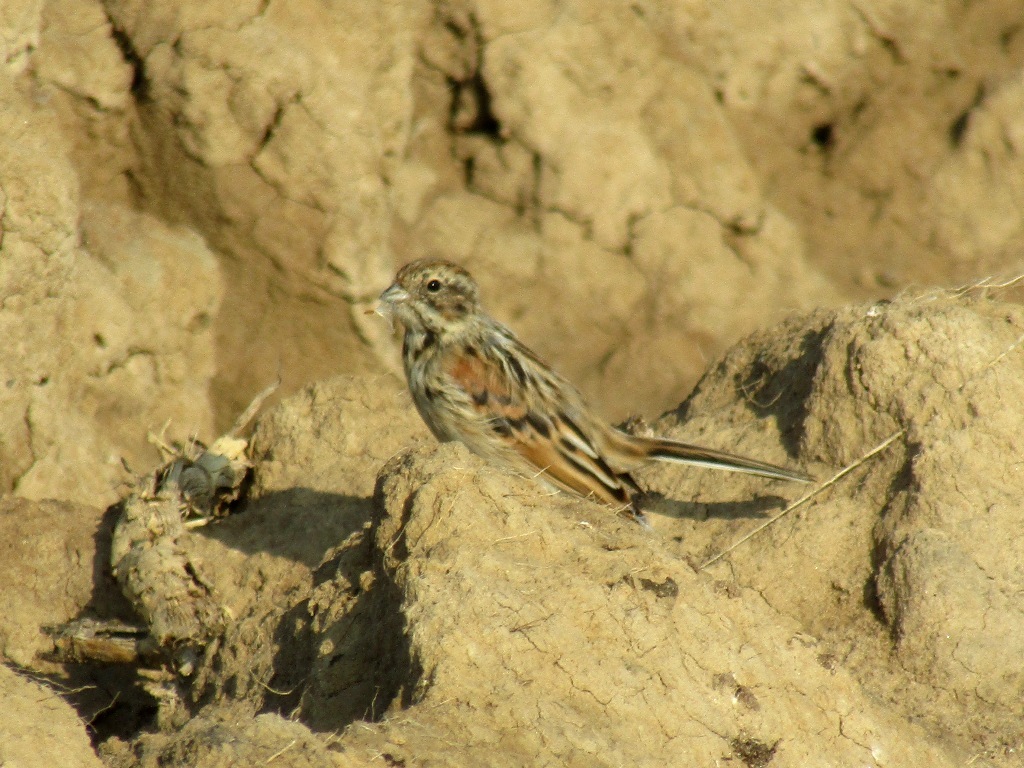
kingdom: Animalia
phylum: Chordata
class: Aves
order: Passeriformes
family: Emberizidae
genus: Emberiza
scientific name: Emberiza schoeniclus
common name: Reed bunting
